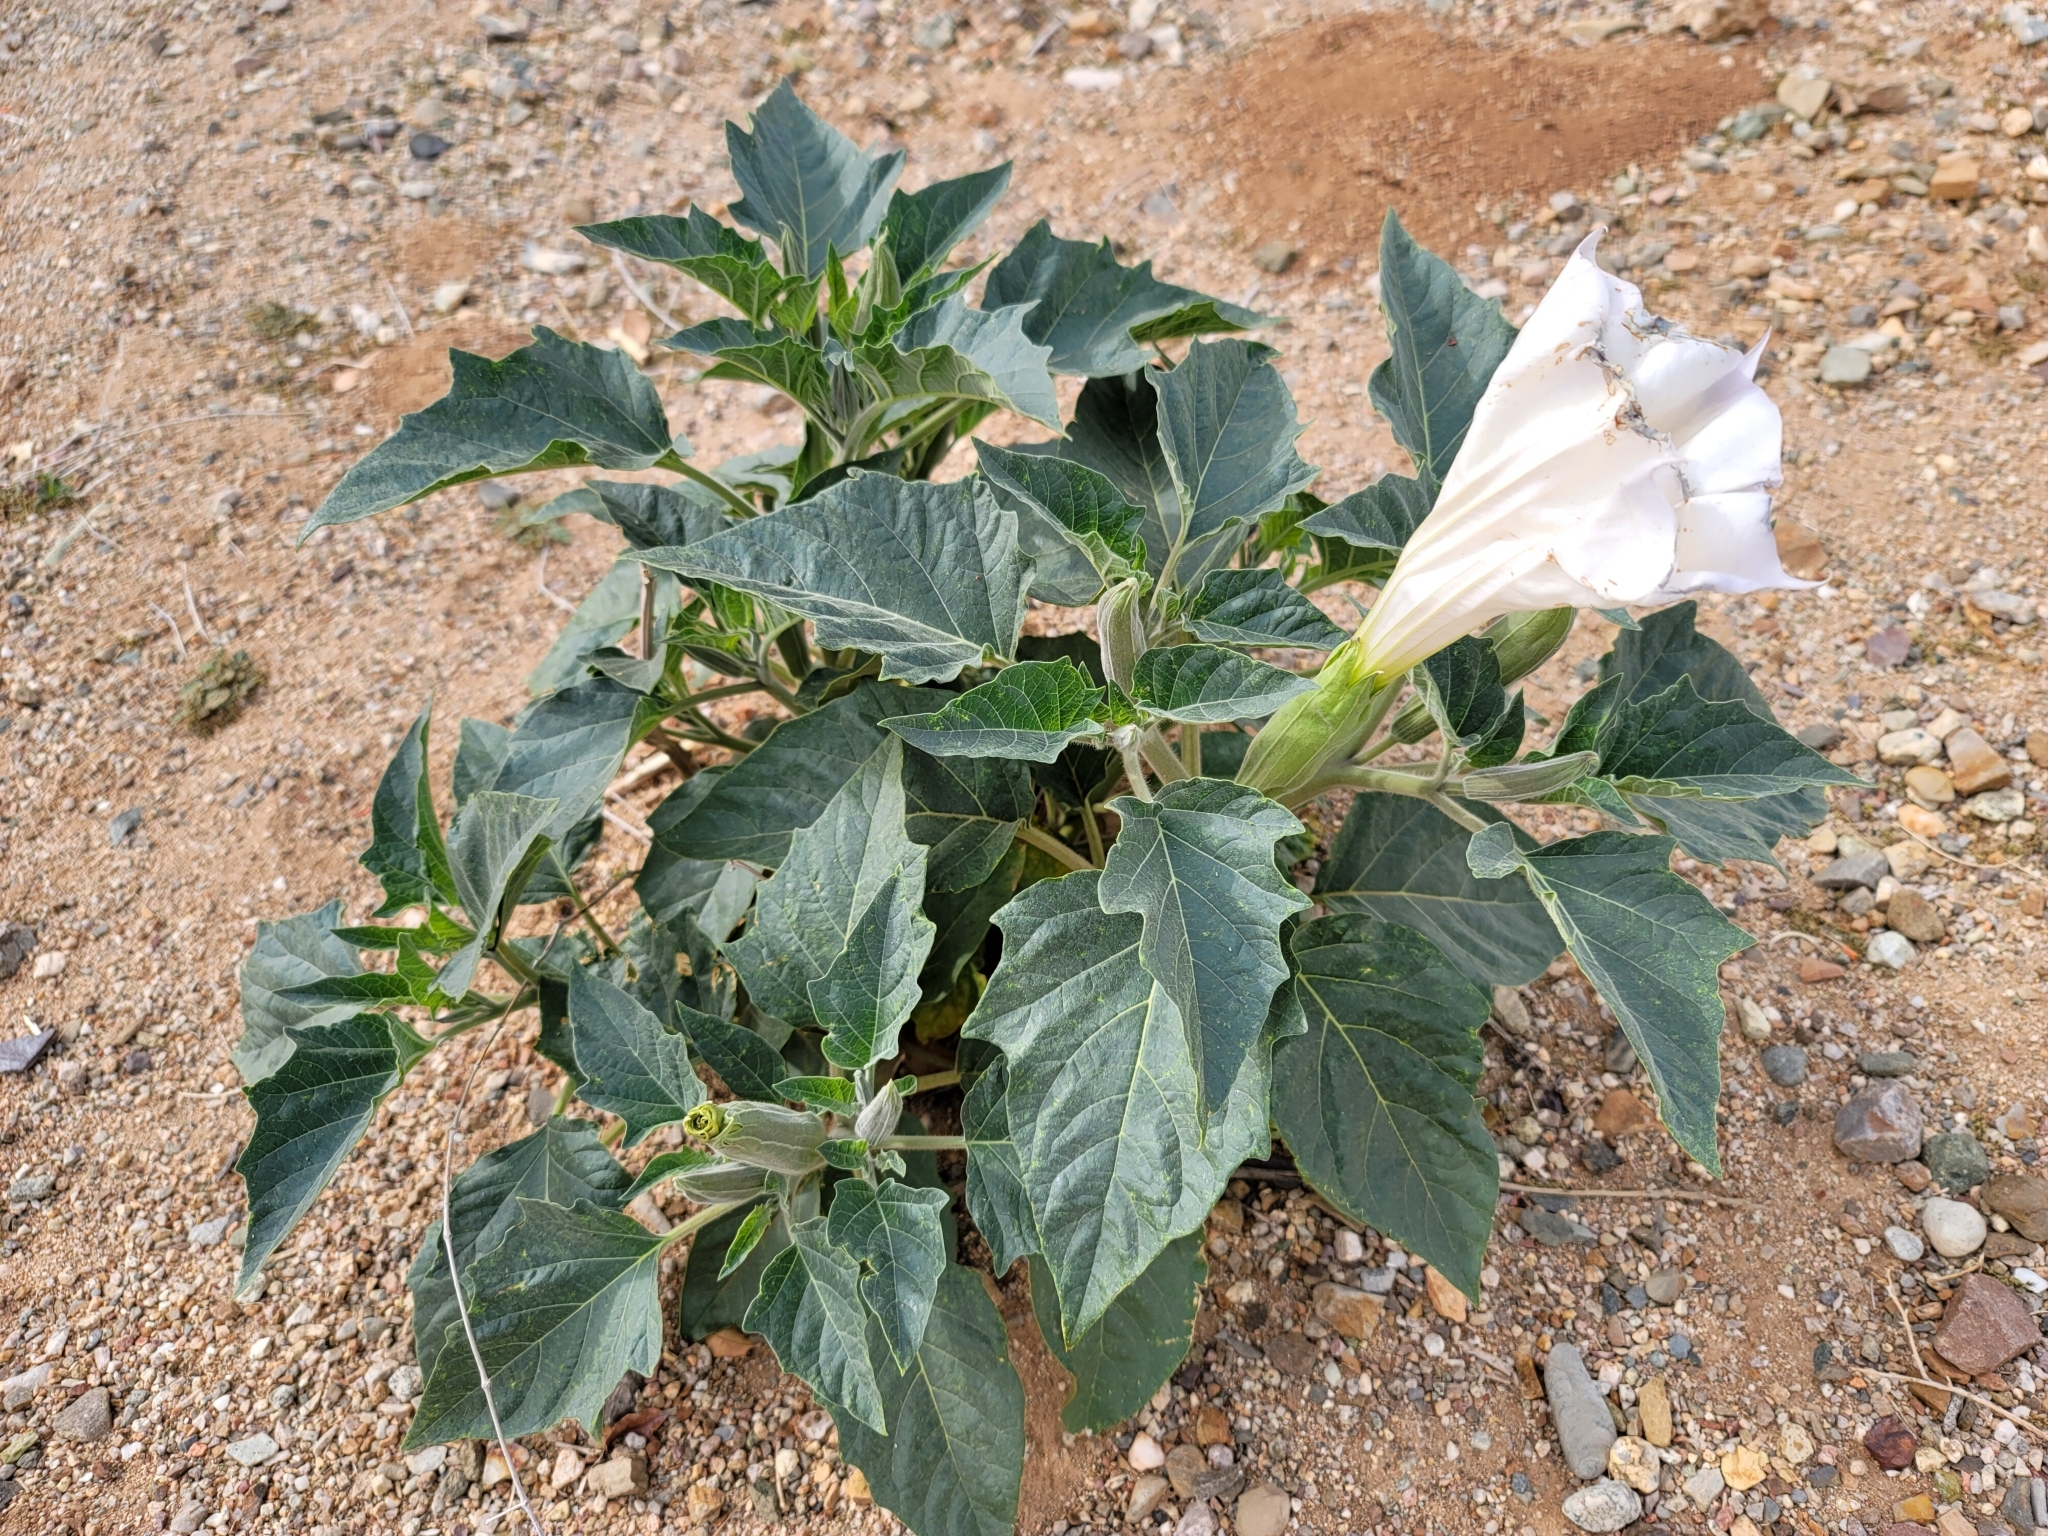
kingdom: Plantae
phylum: Tracheophyta
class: Magnoliopsida
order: Solanales
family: Solanaceae
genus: Datura
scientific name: Datura wrightii
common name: Sacred thorn-apple
